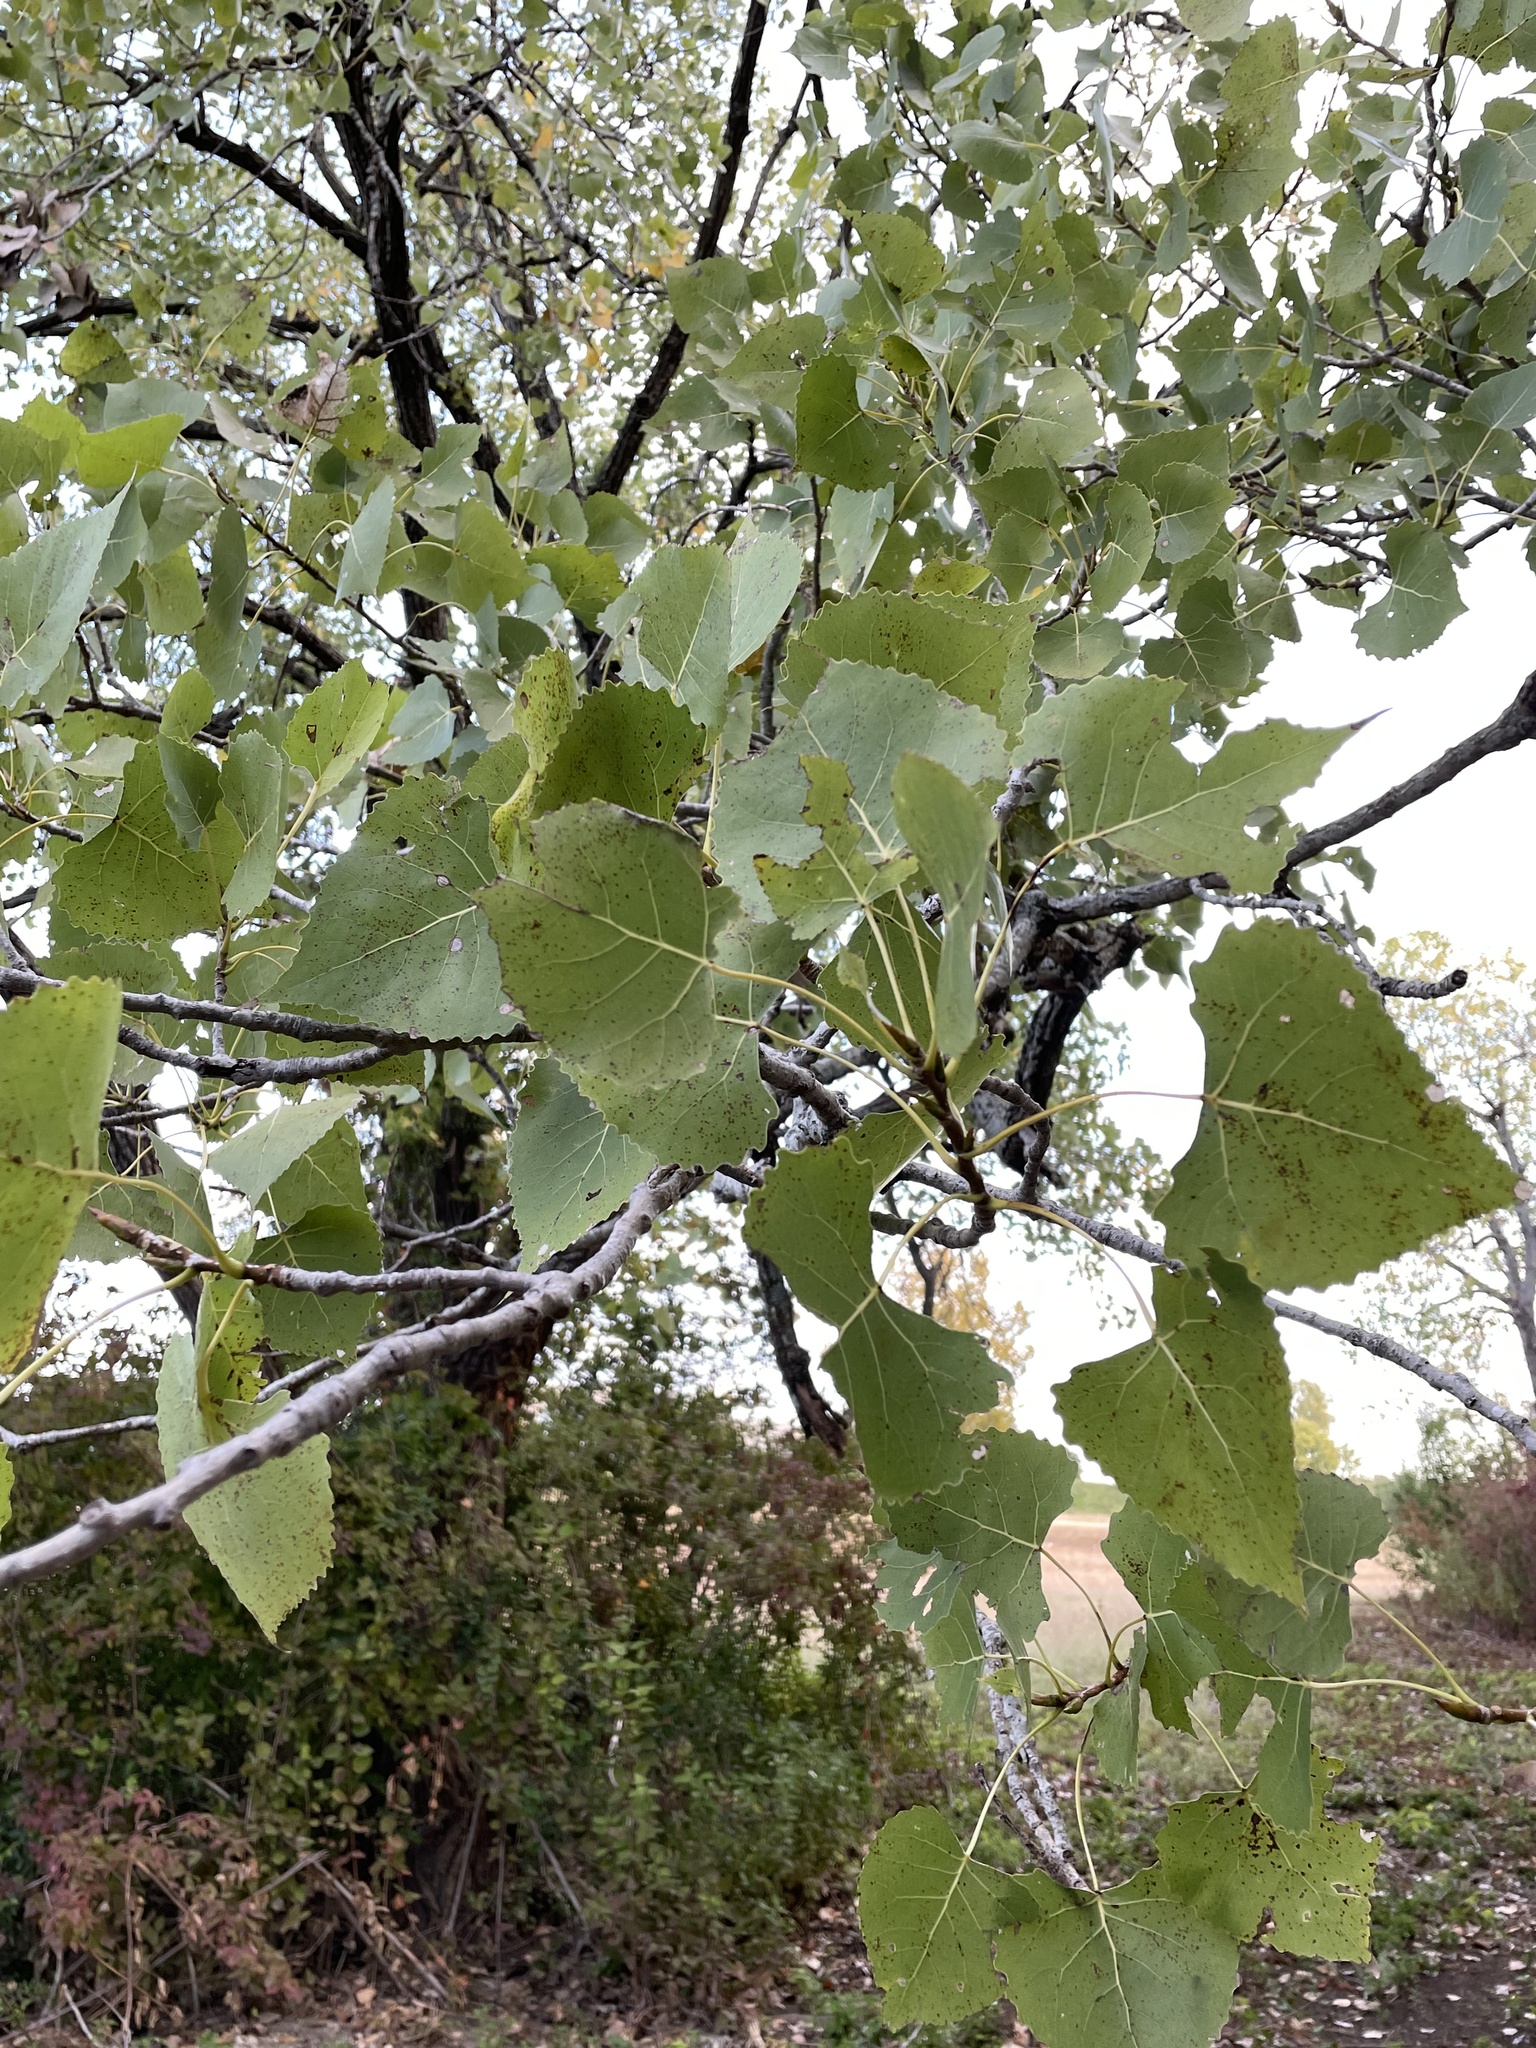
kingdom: Plantae
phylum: Tracheophyta
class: Magnoliopsida
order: Malpighiales
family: Salicaceae
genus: Populus
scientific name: Populus deltoides
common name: Eastern cottonwood
